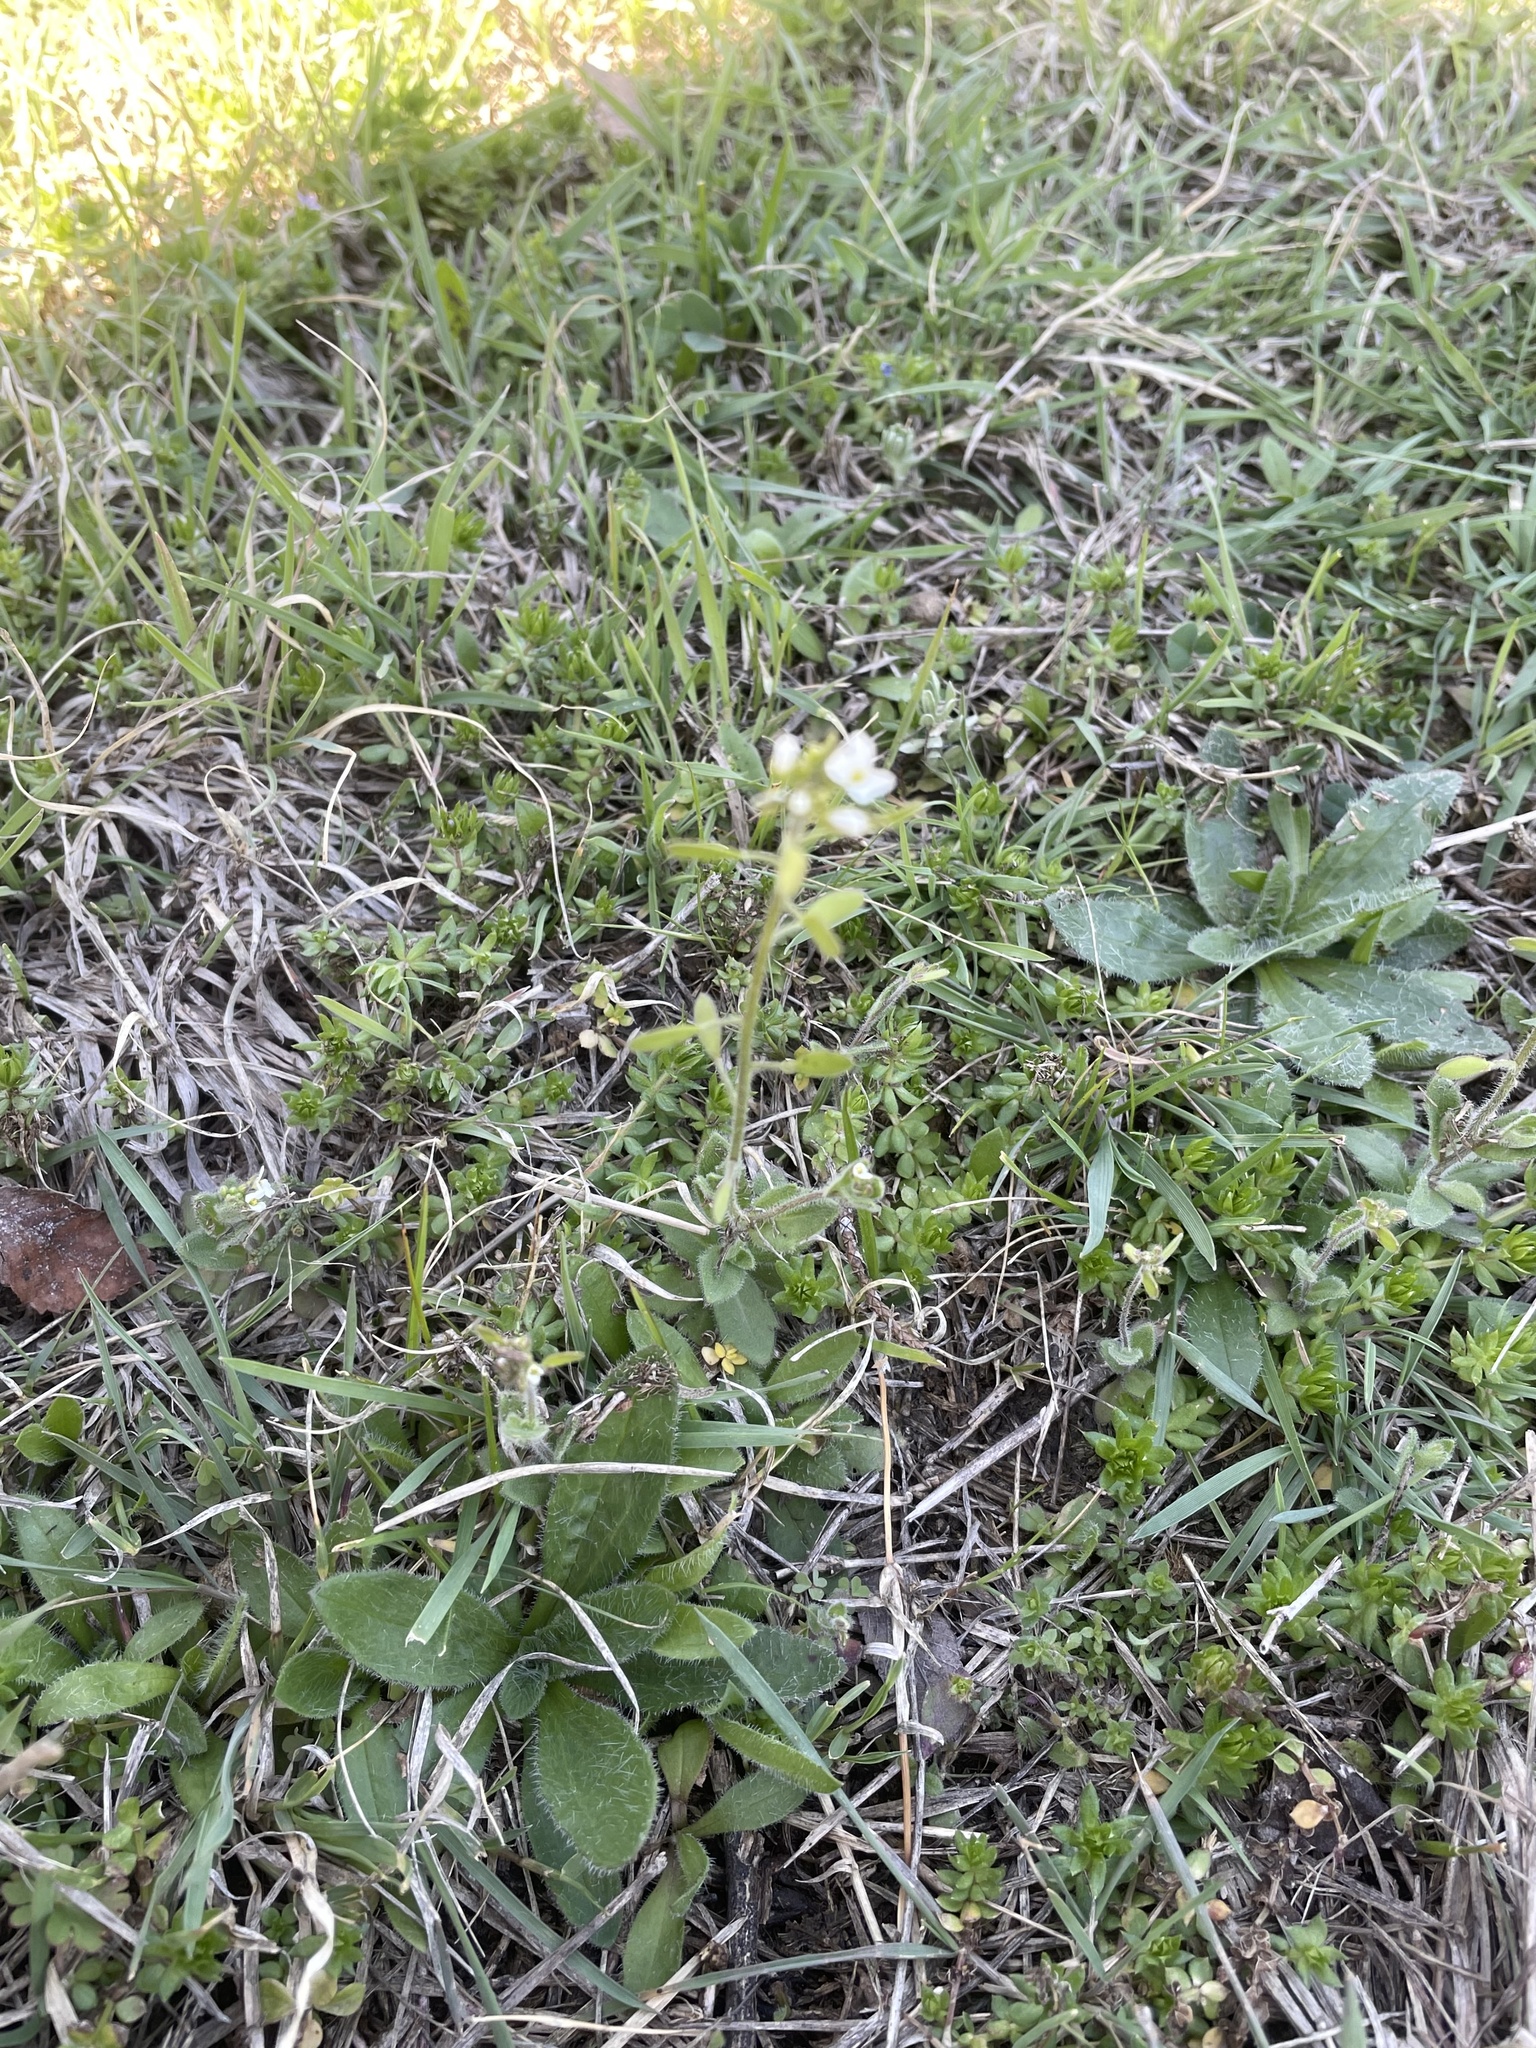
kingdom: Plantae
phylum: Tracheophyta
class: Magnoliopsida
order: Brassicales
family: Brassicaceae
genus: Tomostima
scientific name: Tomostima platycarpa
